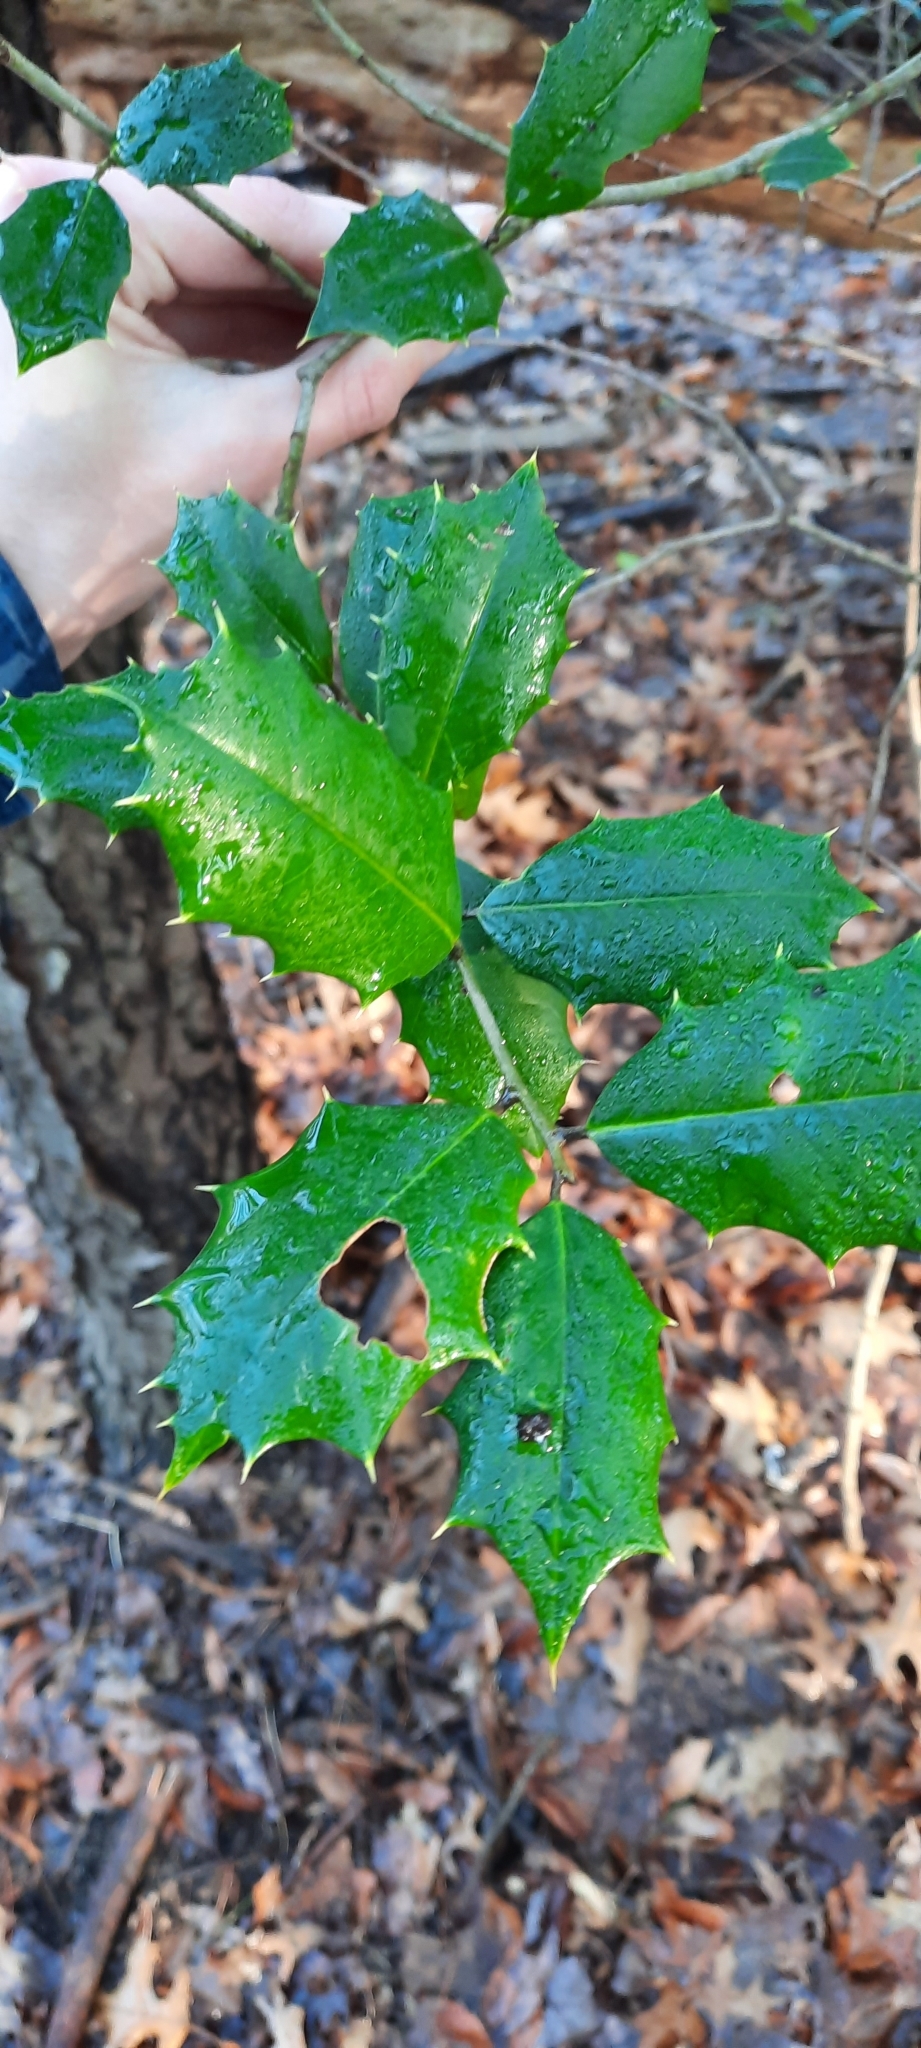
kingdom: Plantae
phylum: Tracheophyta
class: Magnoliopsida
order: Aquifoliales
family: Aquifoliaceae
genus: Ilex
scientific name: Ilex opaca
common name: American holly
